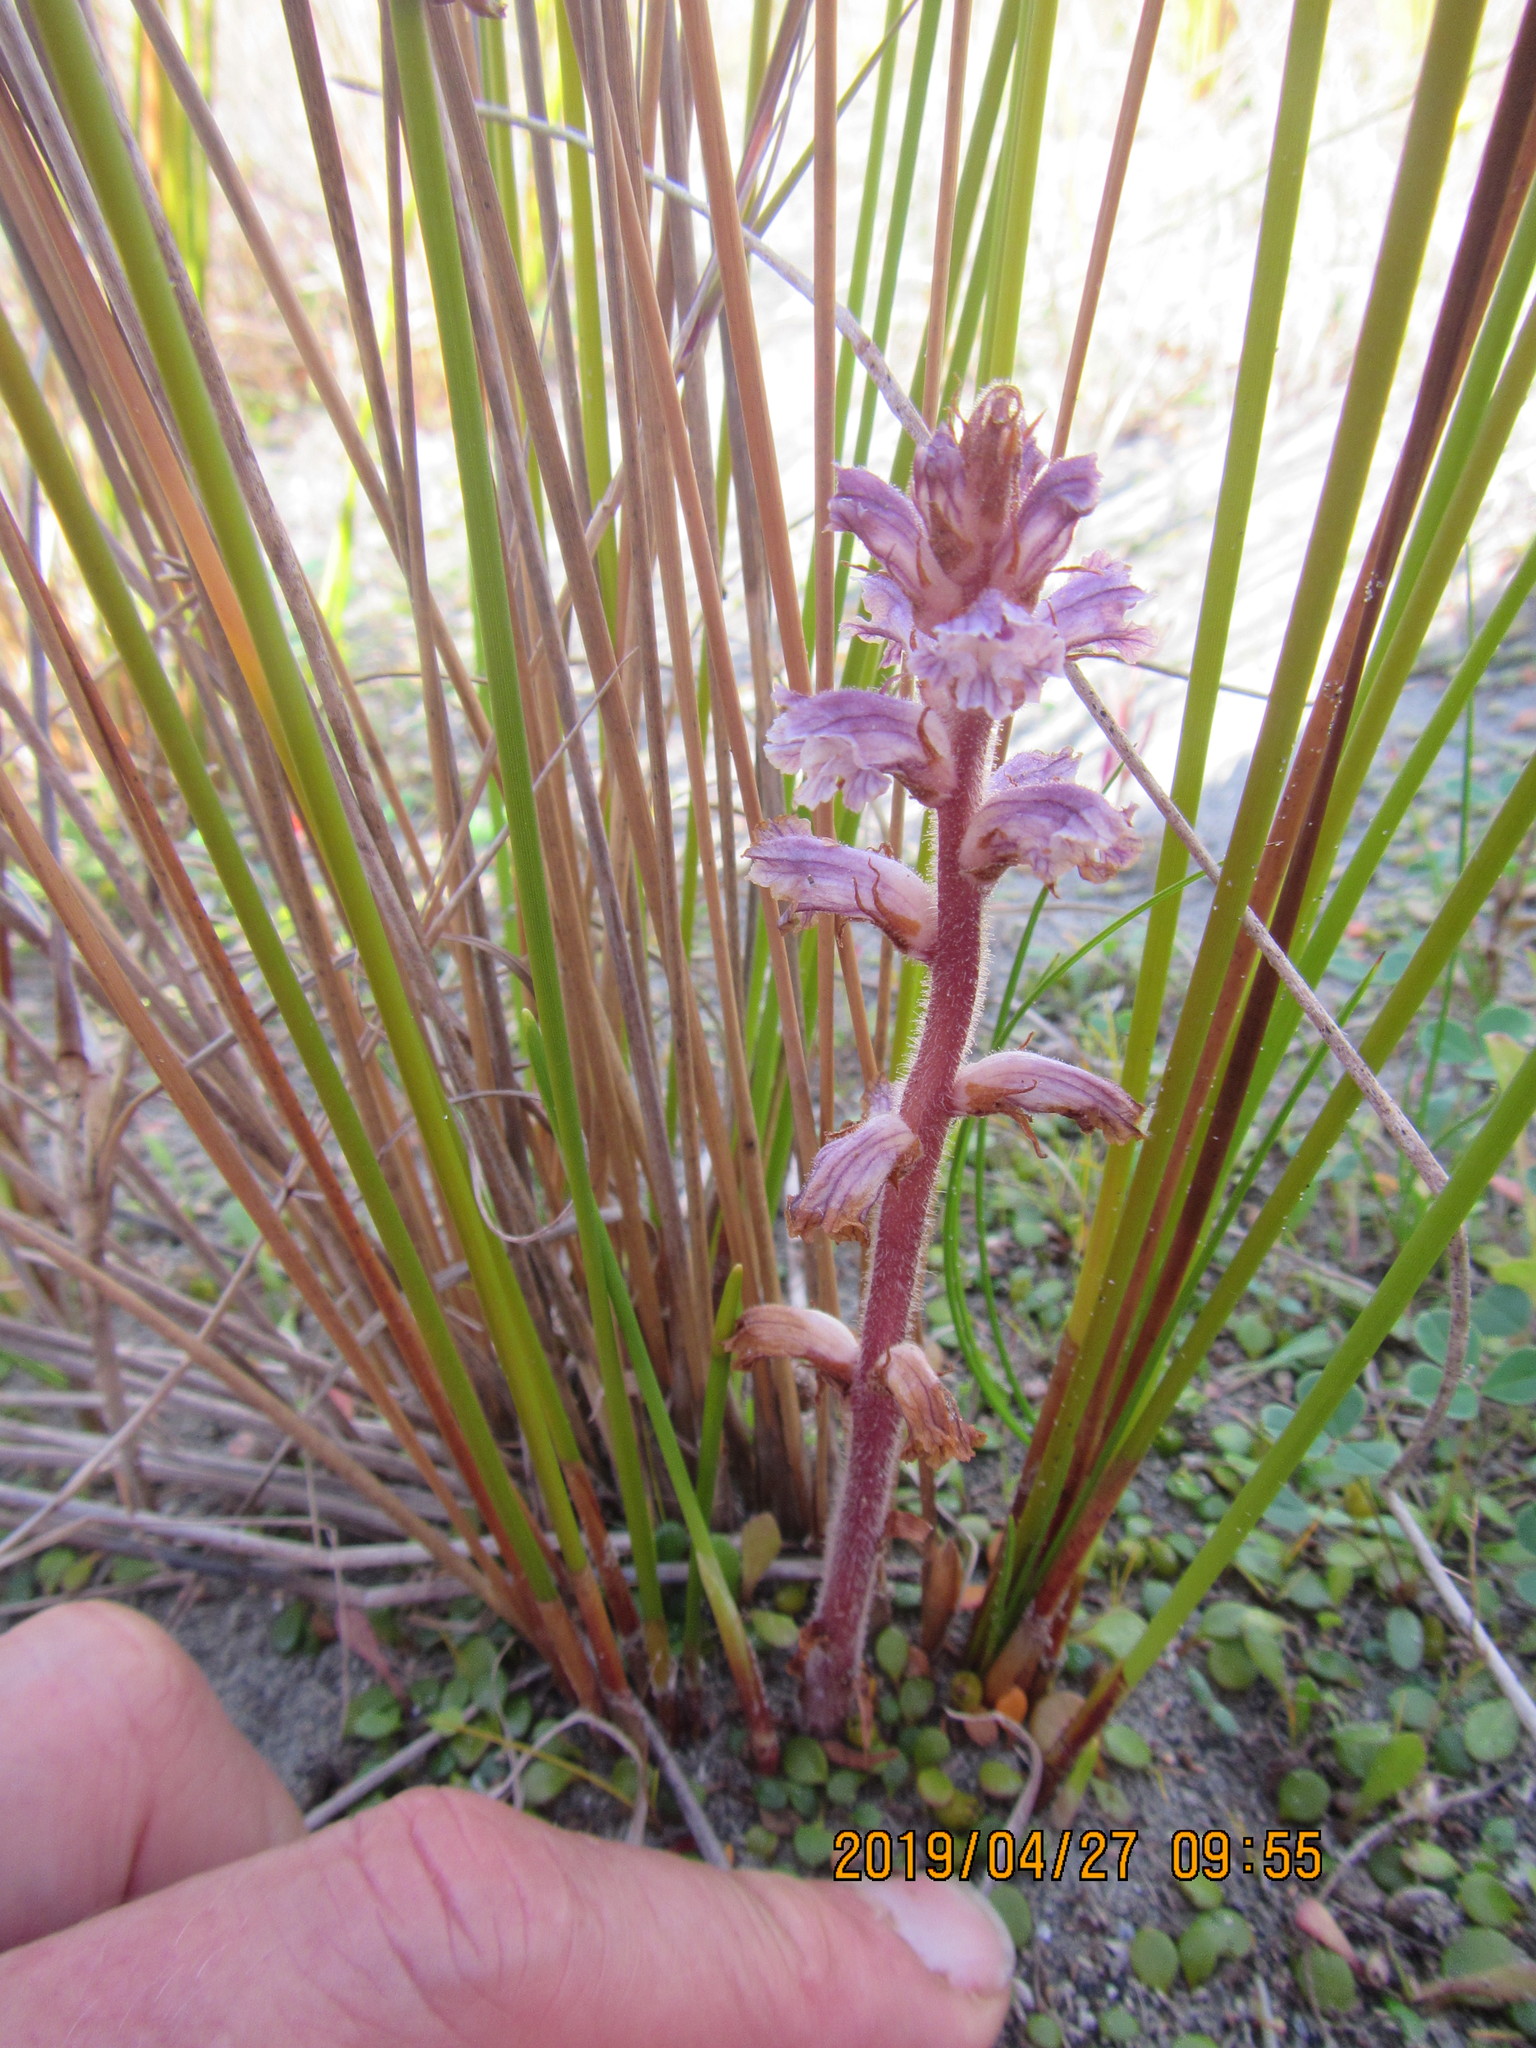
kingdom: Plantae
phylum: Tracheophyta
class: Magnoliopsida
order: Lamiales
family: Orobanchaceae
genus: Orobanche
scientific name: Orobanche minor
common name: Common broomrape
